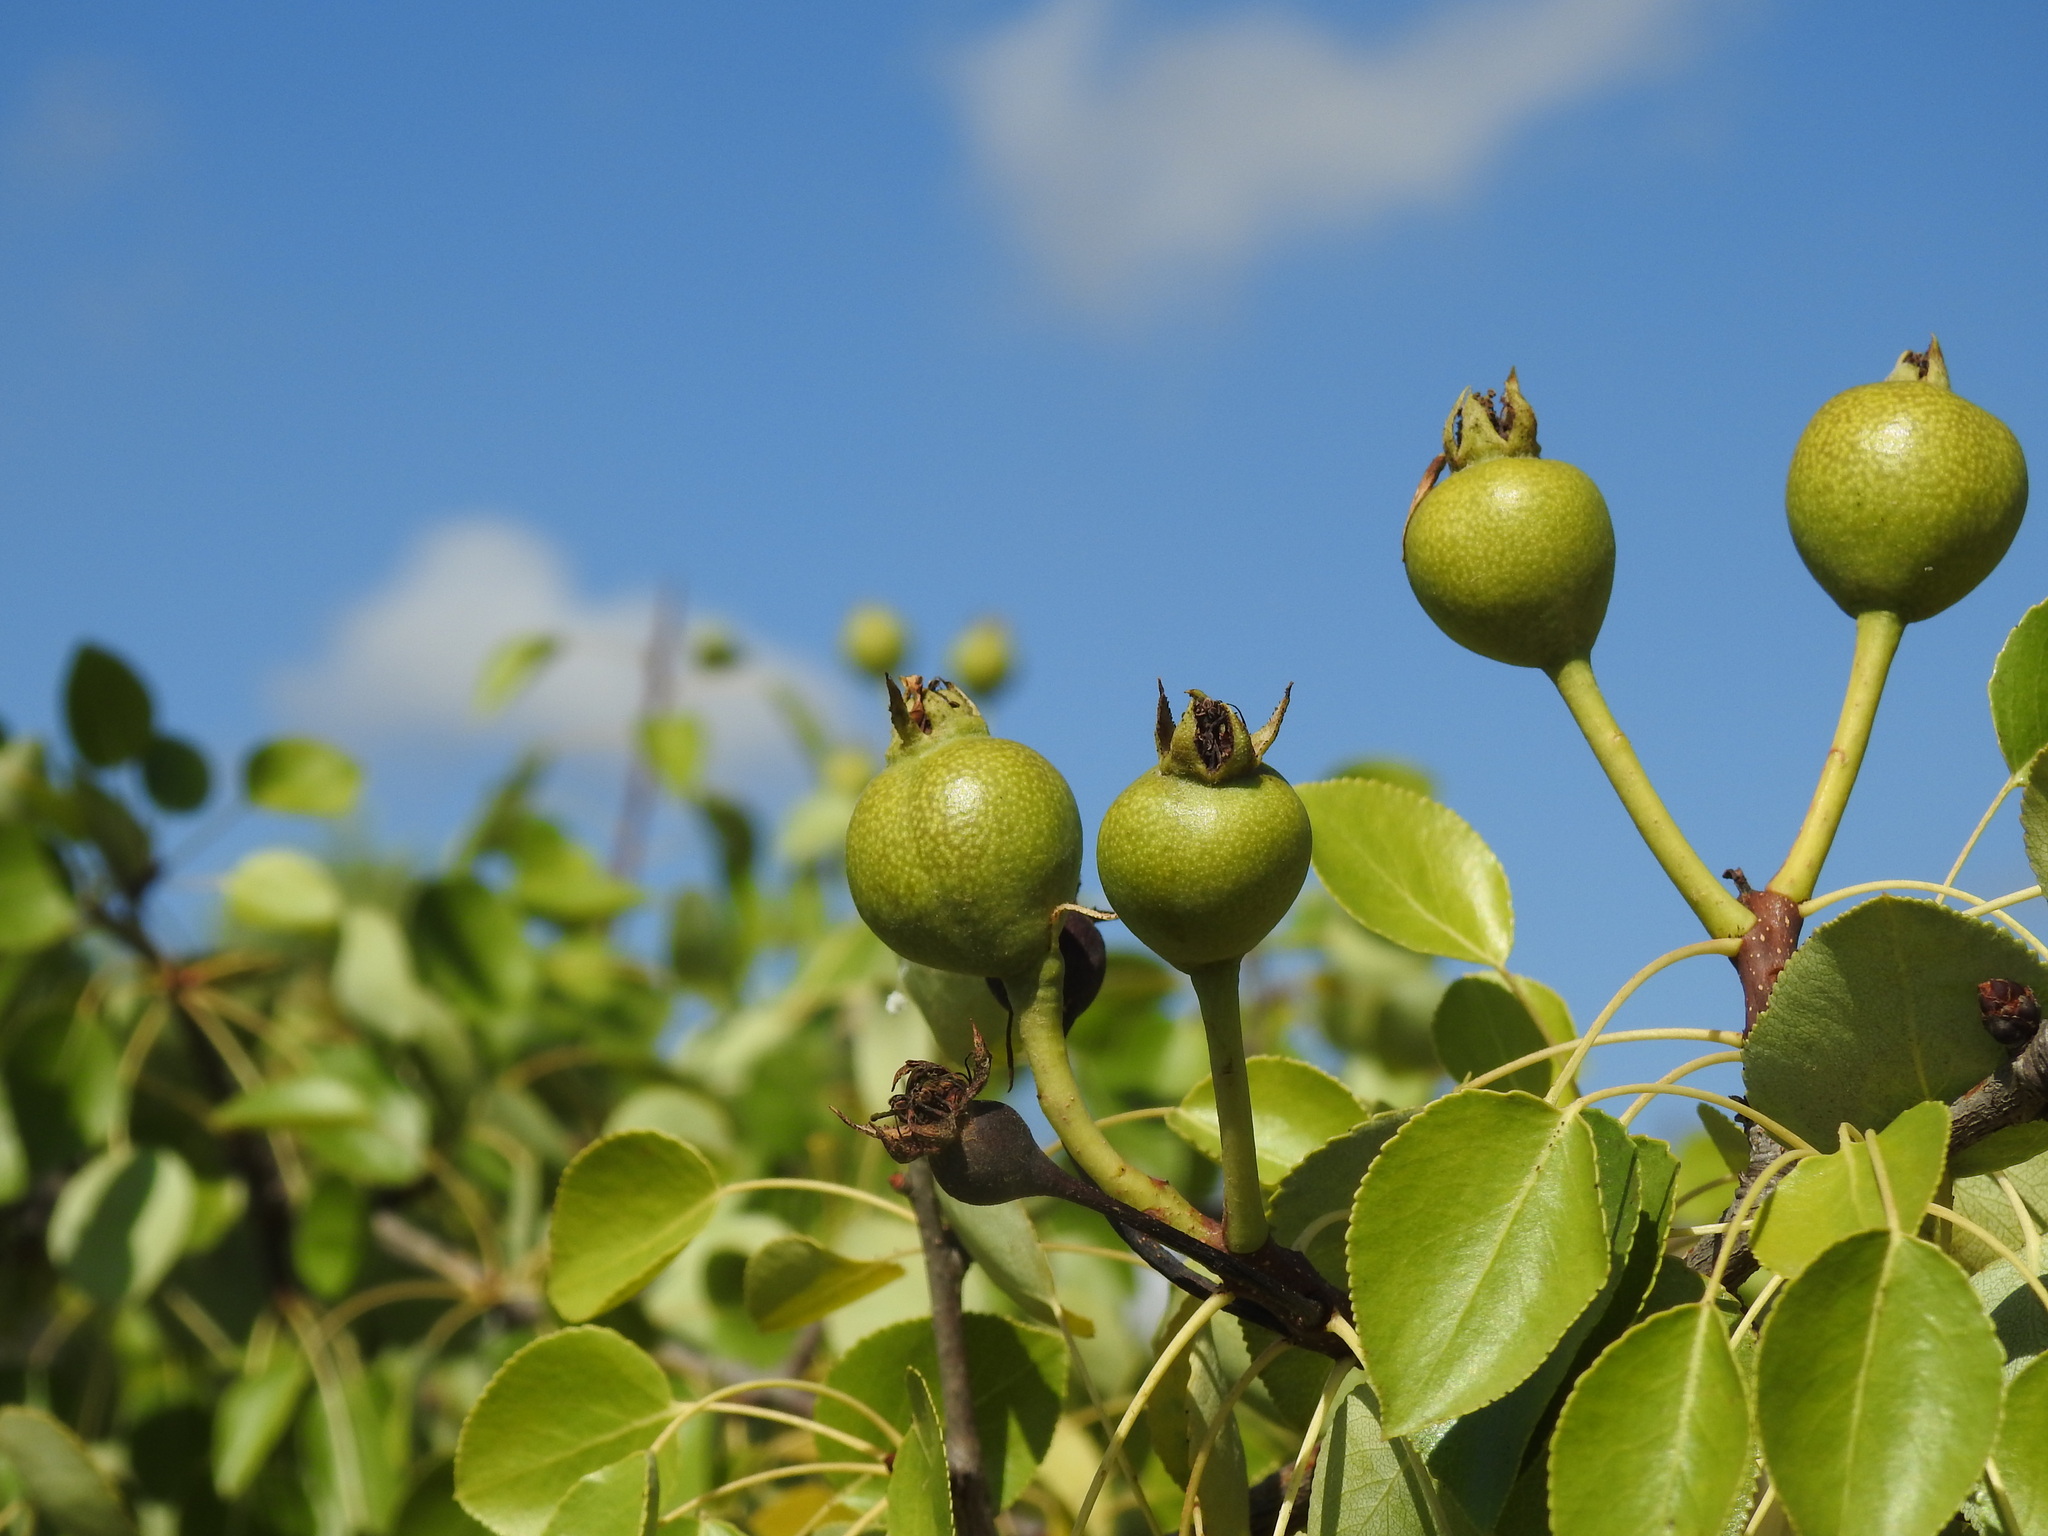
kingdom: Plantae
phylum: Tracheophyta
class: Magnoliopsida
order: Rosales
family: Rosaceae
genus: Pyrus
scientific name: Pyrus bourgaeana
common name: Iberian pear
